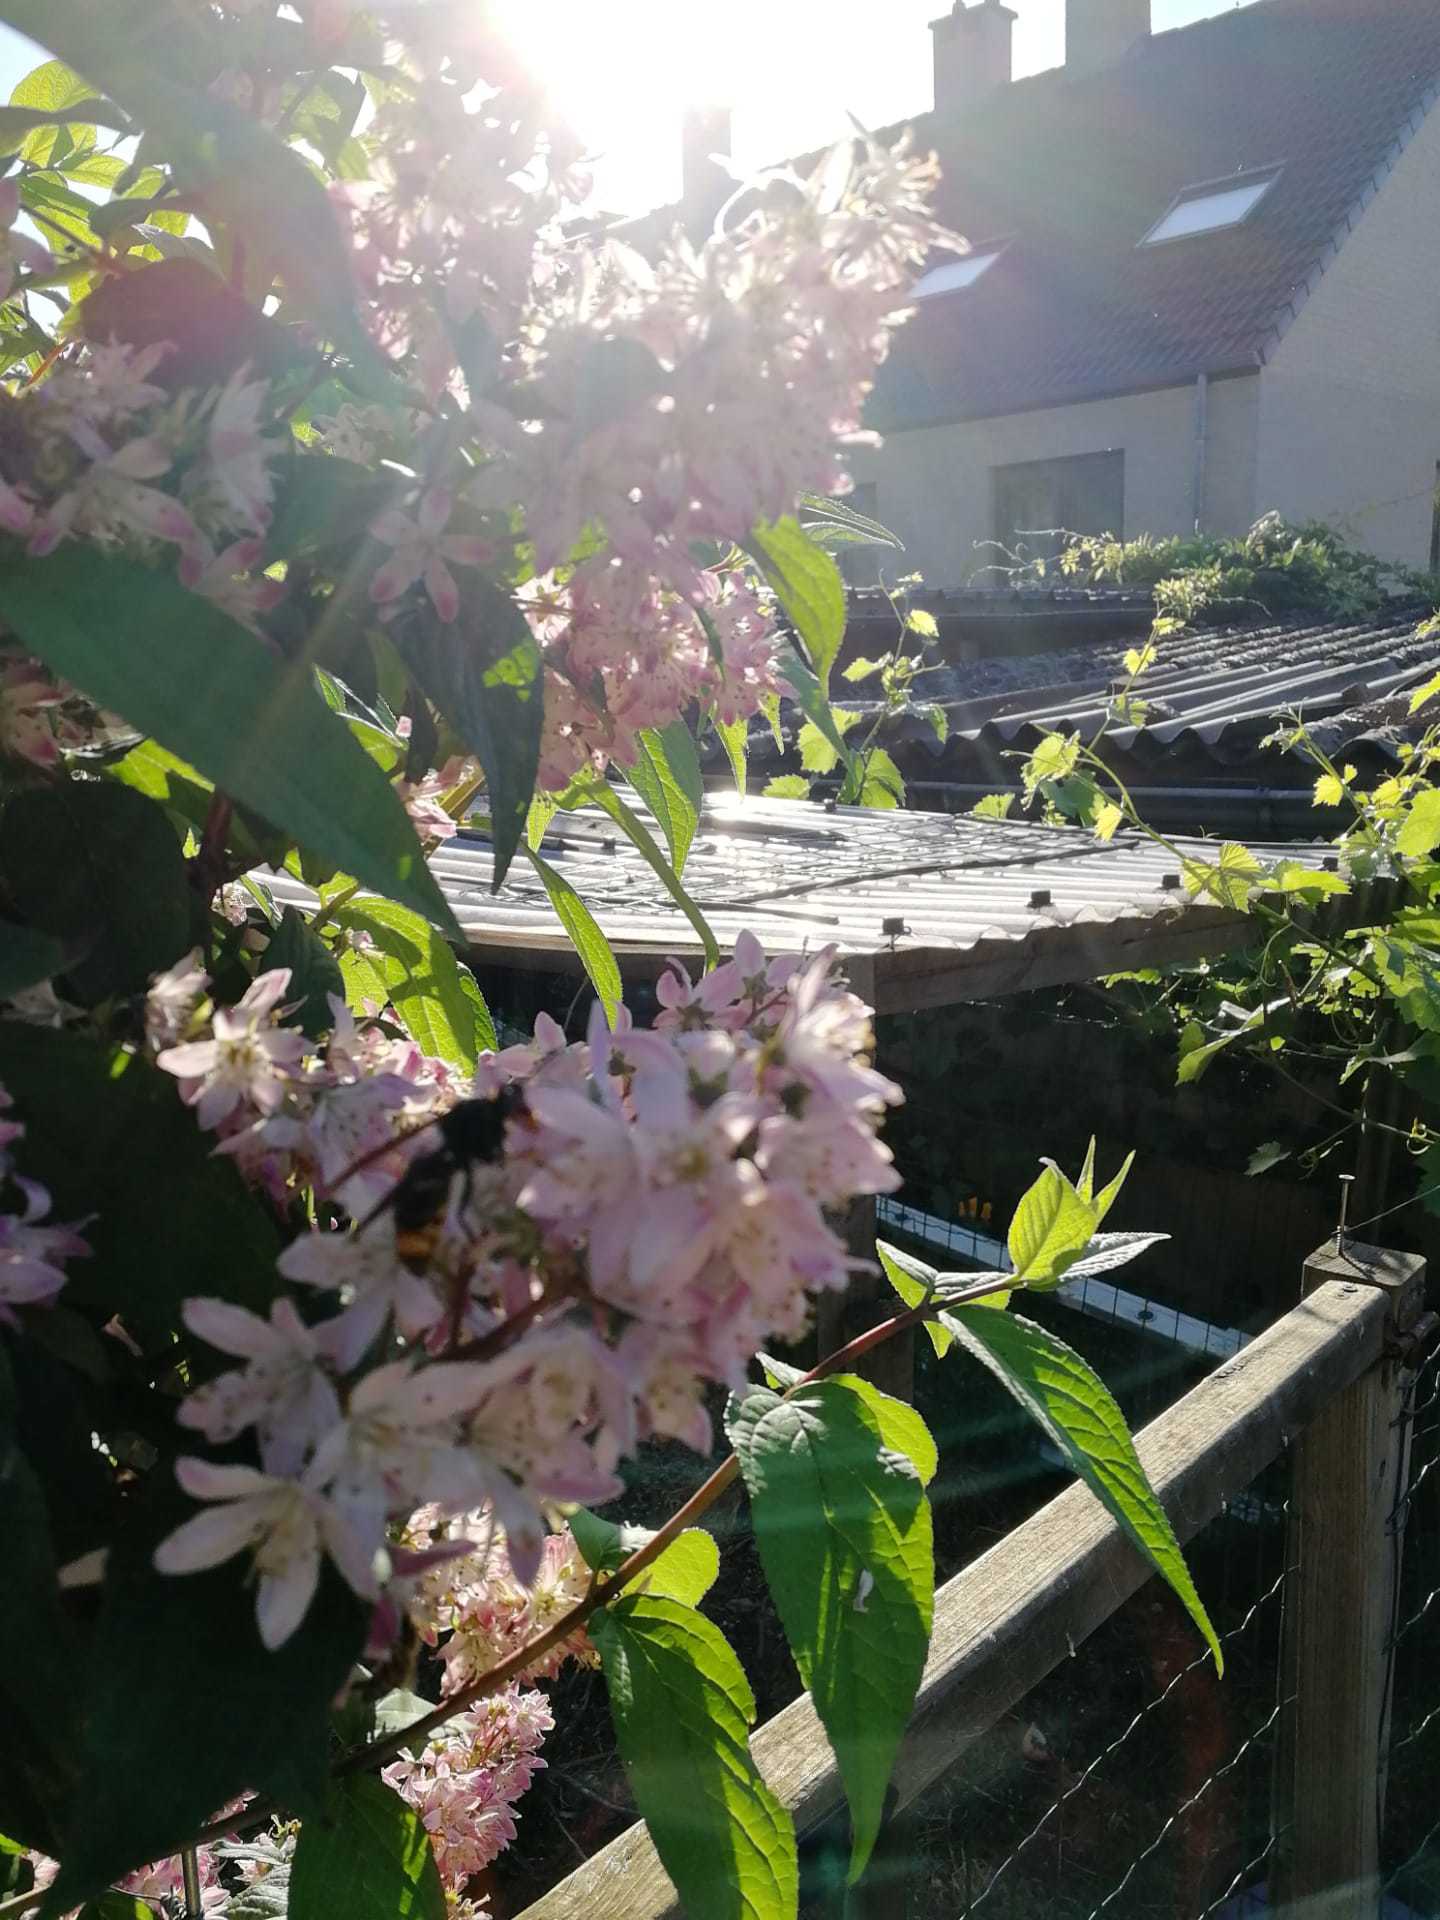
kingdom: Animalia
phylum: Arthropoda
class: Insecta
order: Hymenoptera
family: Vespidae
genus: Vespa
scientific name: Vespa velutina
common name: Asian hornet
